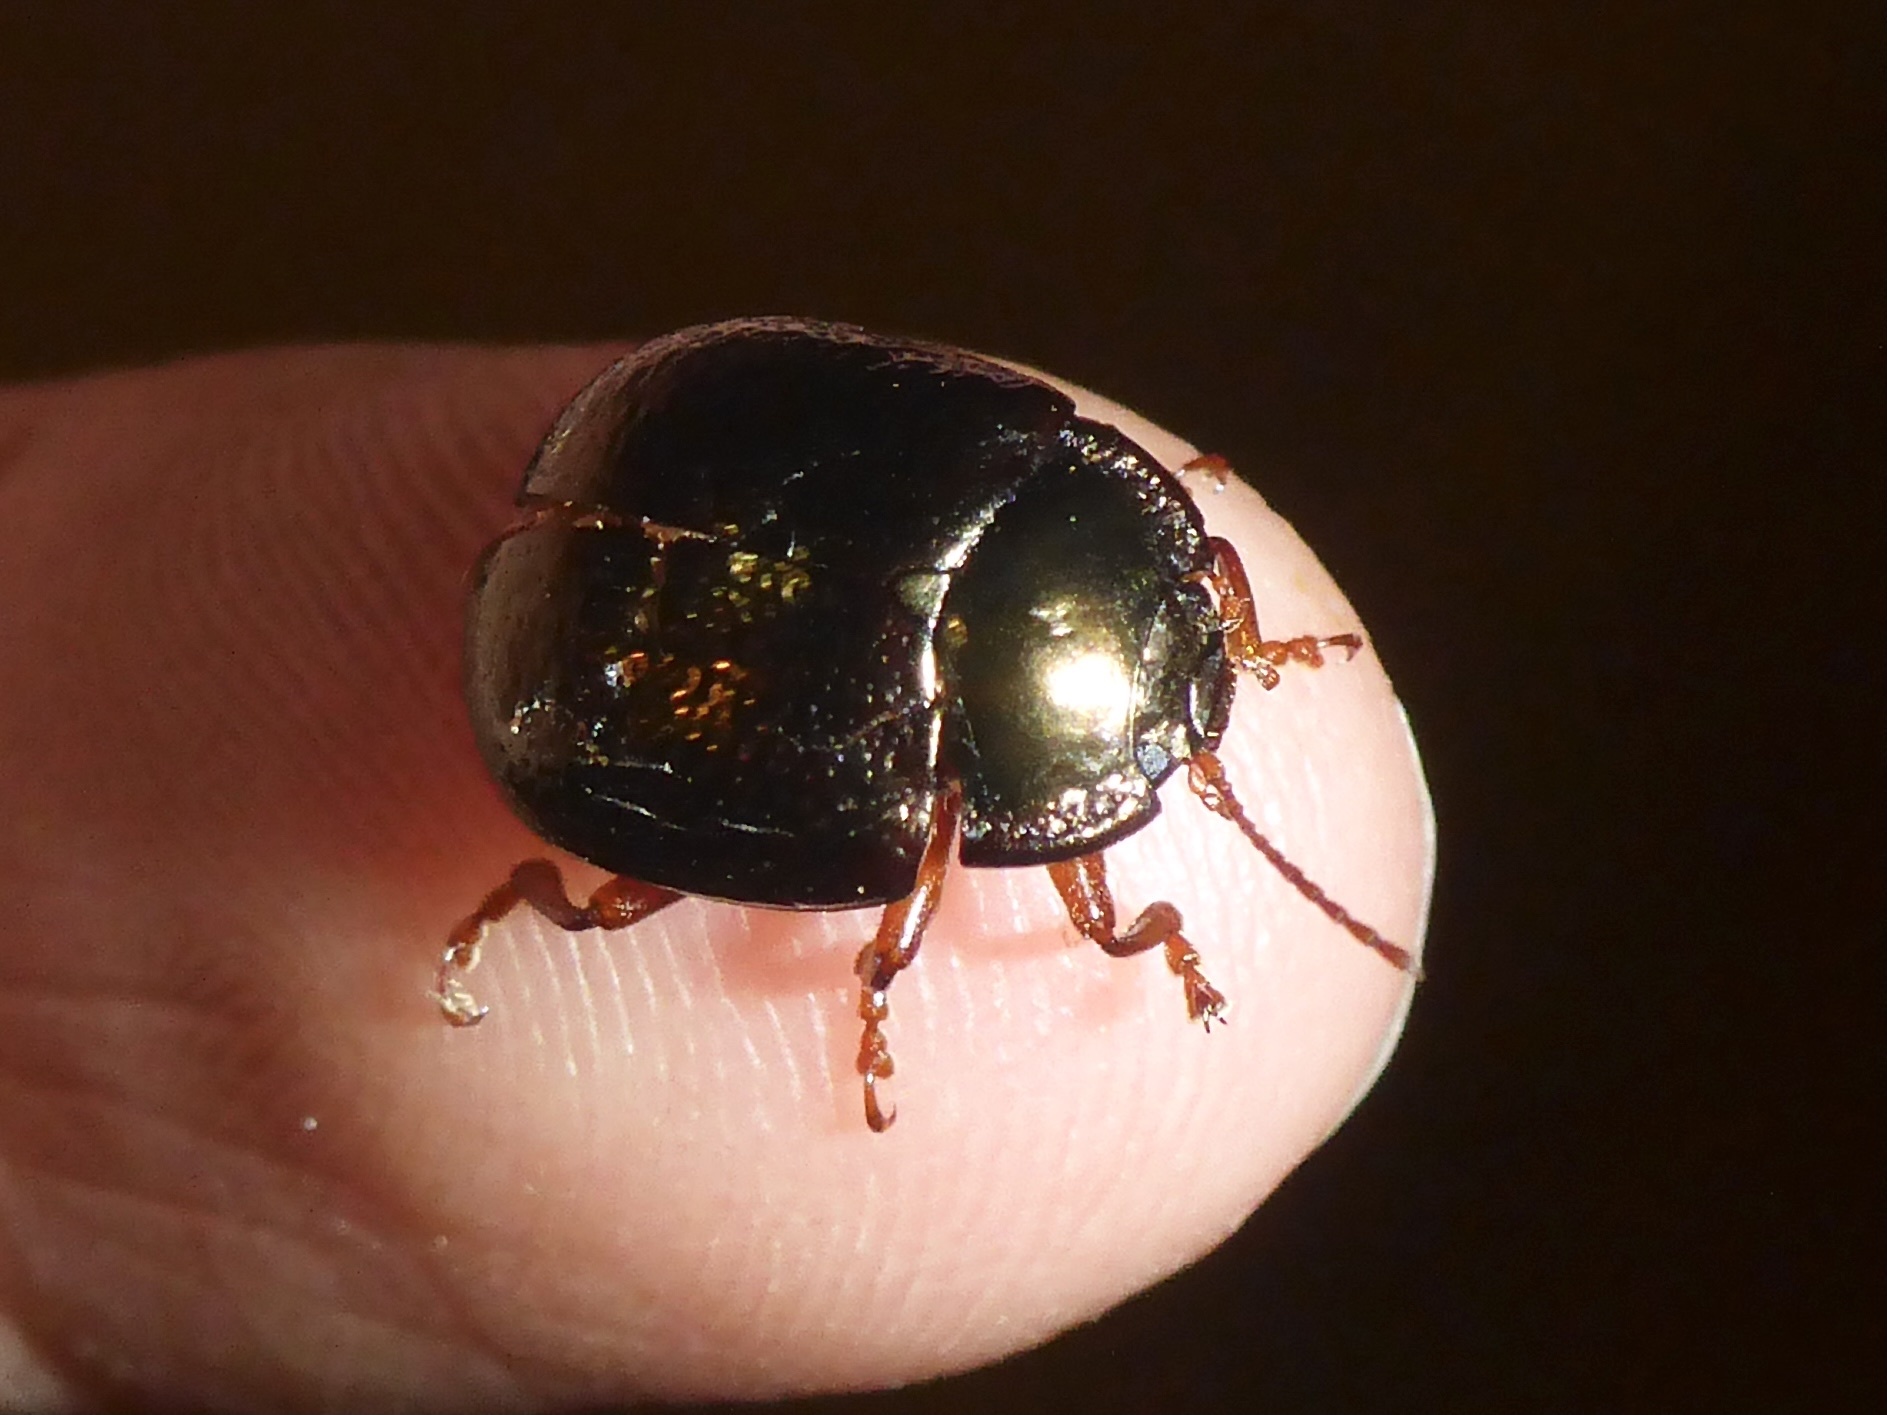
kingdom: Animalia
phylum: Arthropoda
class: Insecta
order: Coleoptera
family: Chrysomelidae
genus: Chrysolina
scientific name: Chrysolina bankii
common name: Leaf beetle
